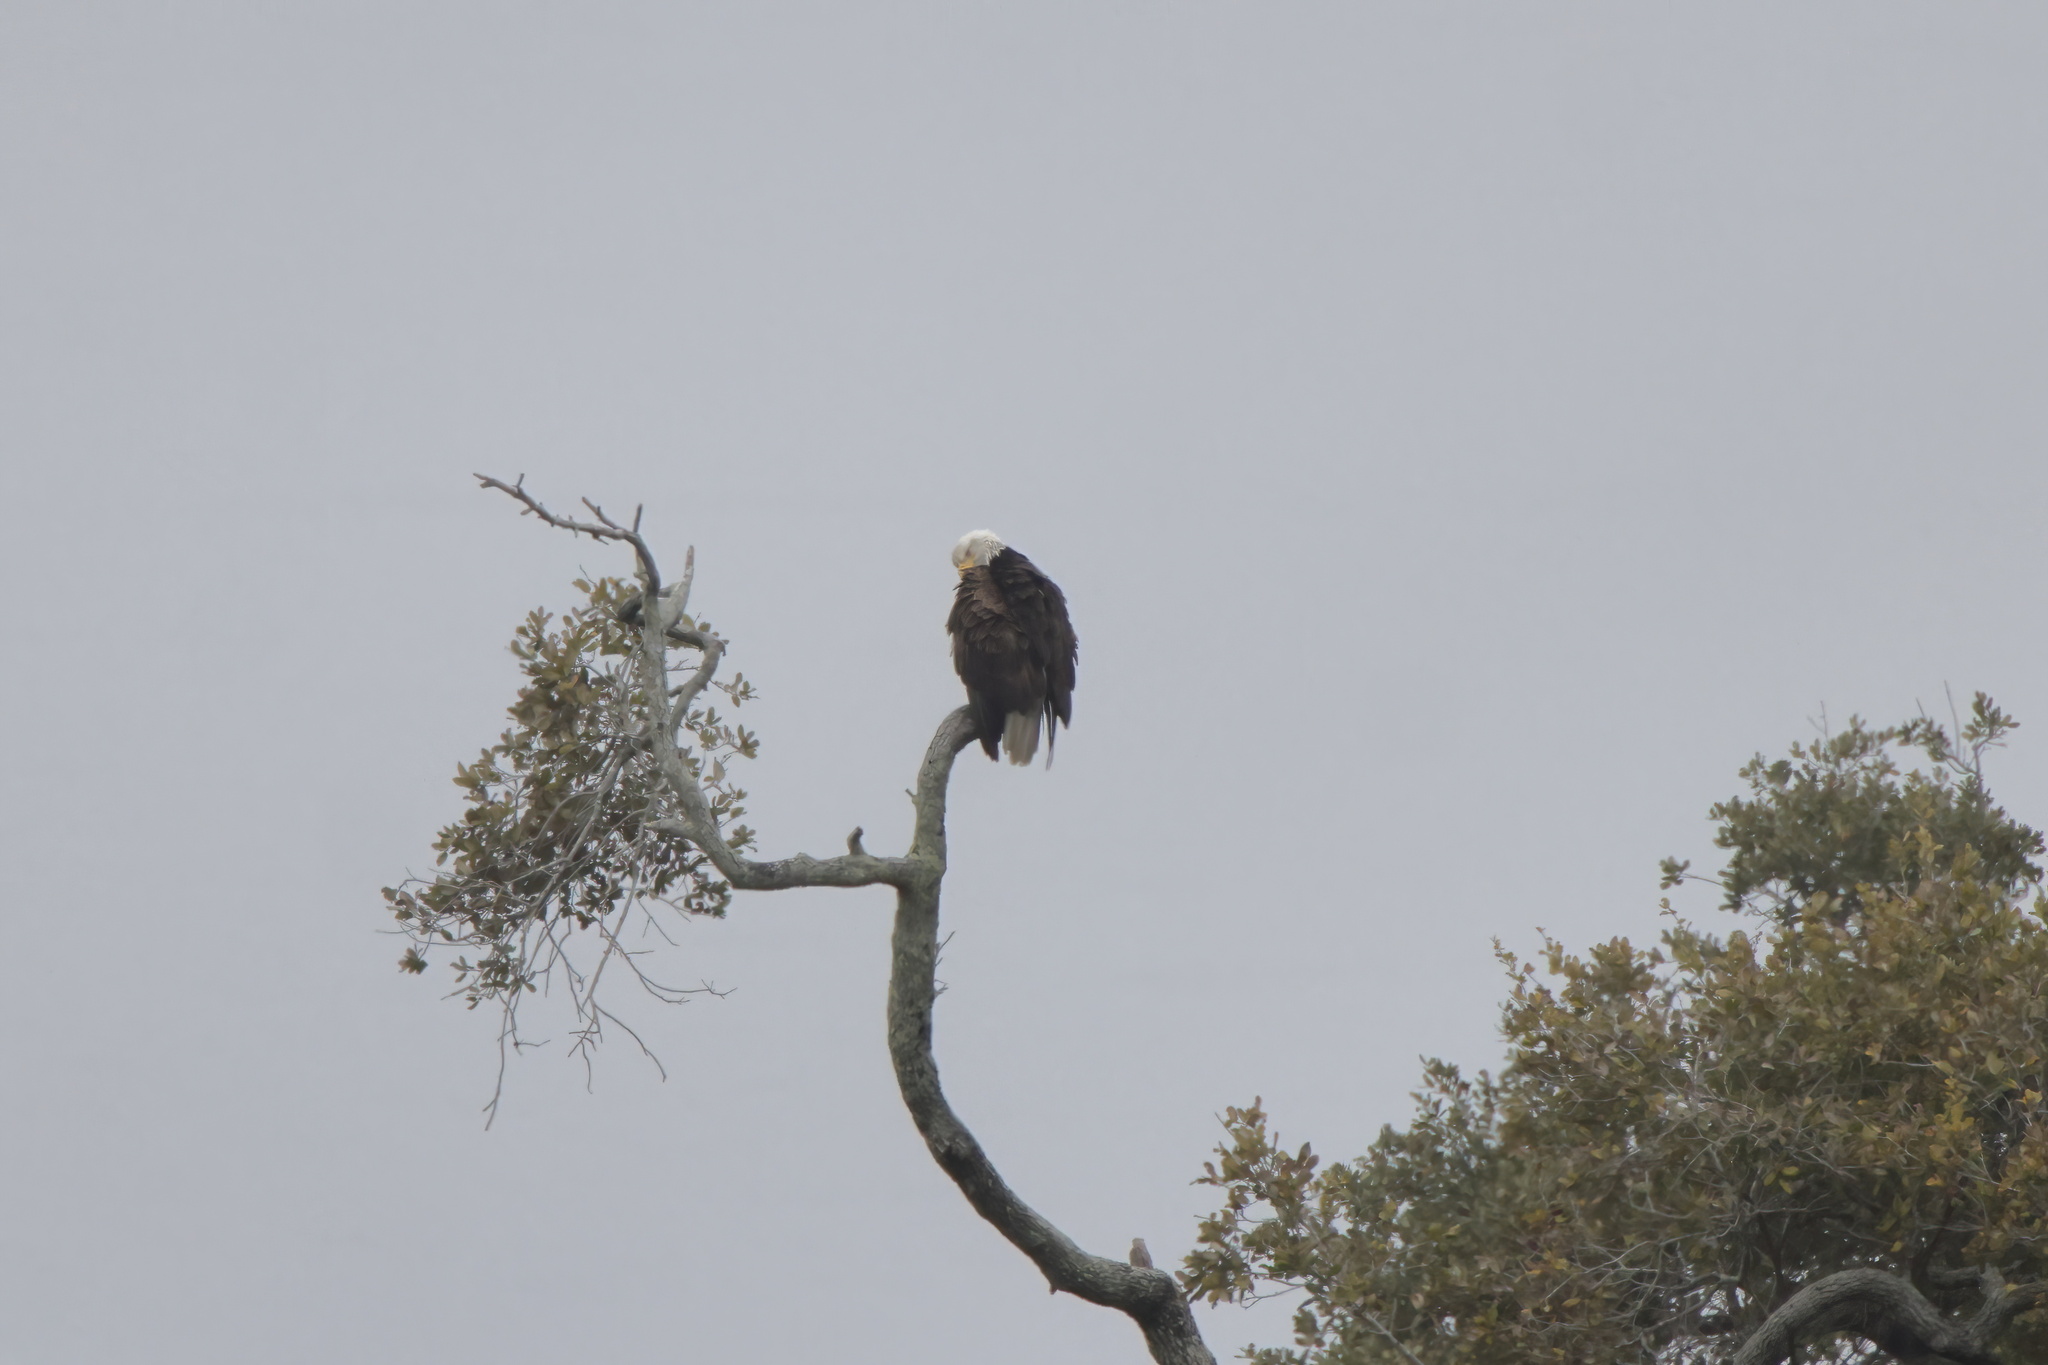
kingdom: Animalia
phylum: Chordata
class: Aves
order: Accipitriformes
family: Accipitridae
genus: Haliaeetus
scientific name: Haliaeetus leucocephalus
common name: Bald eagle
